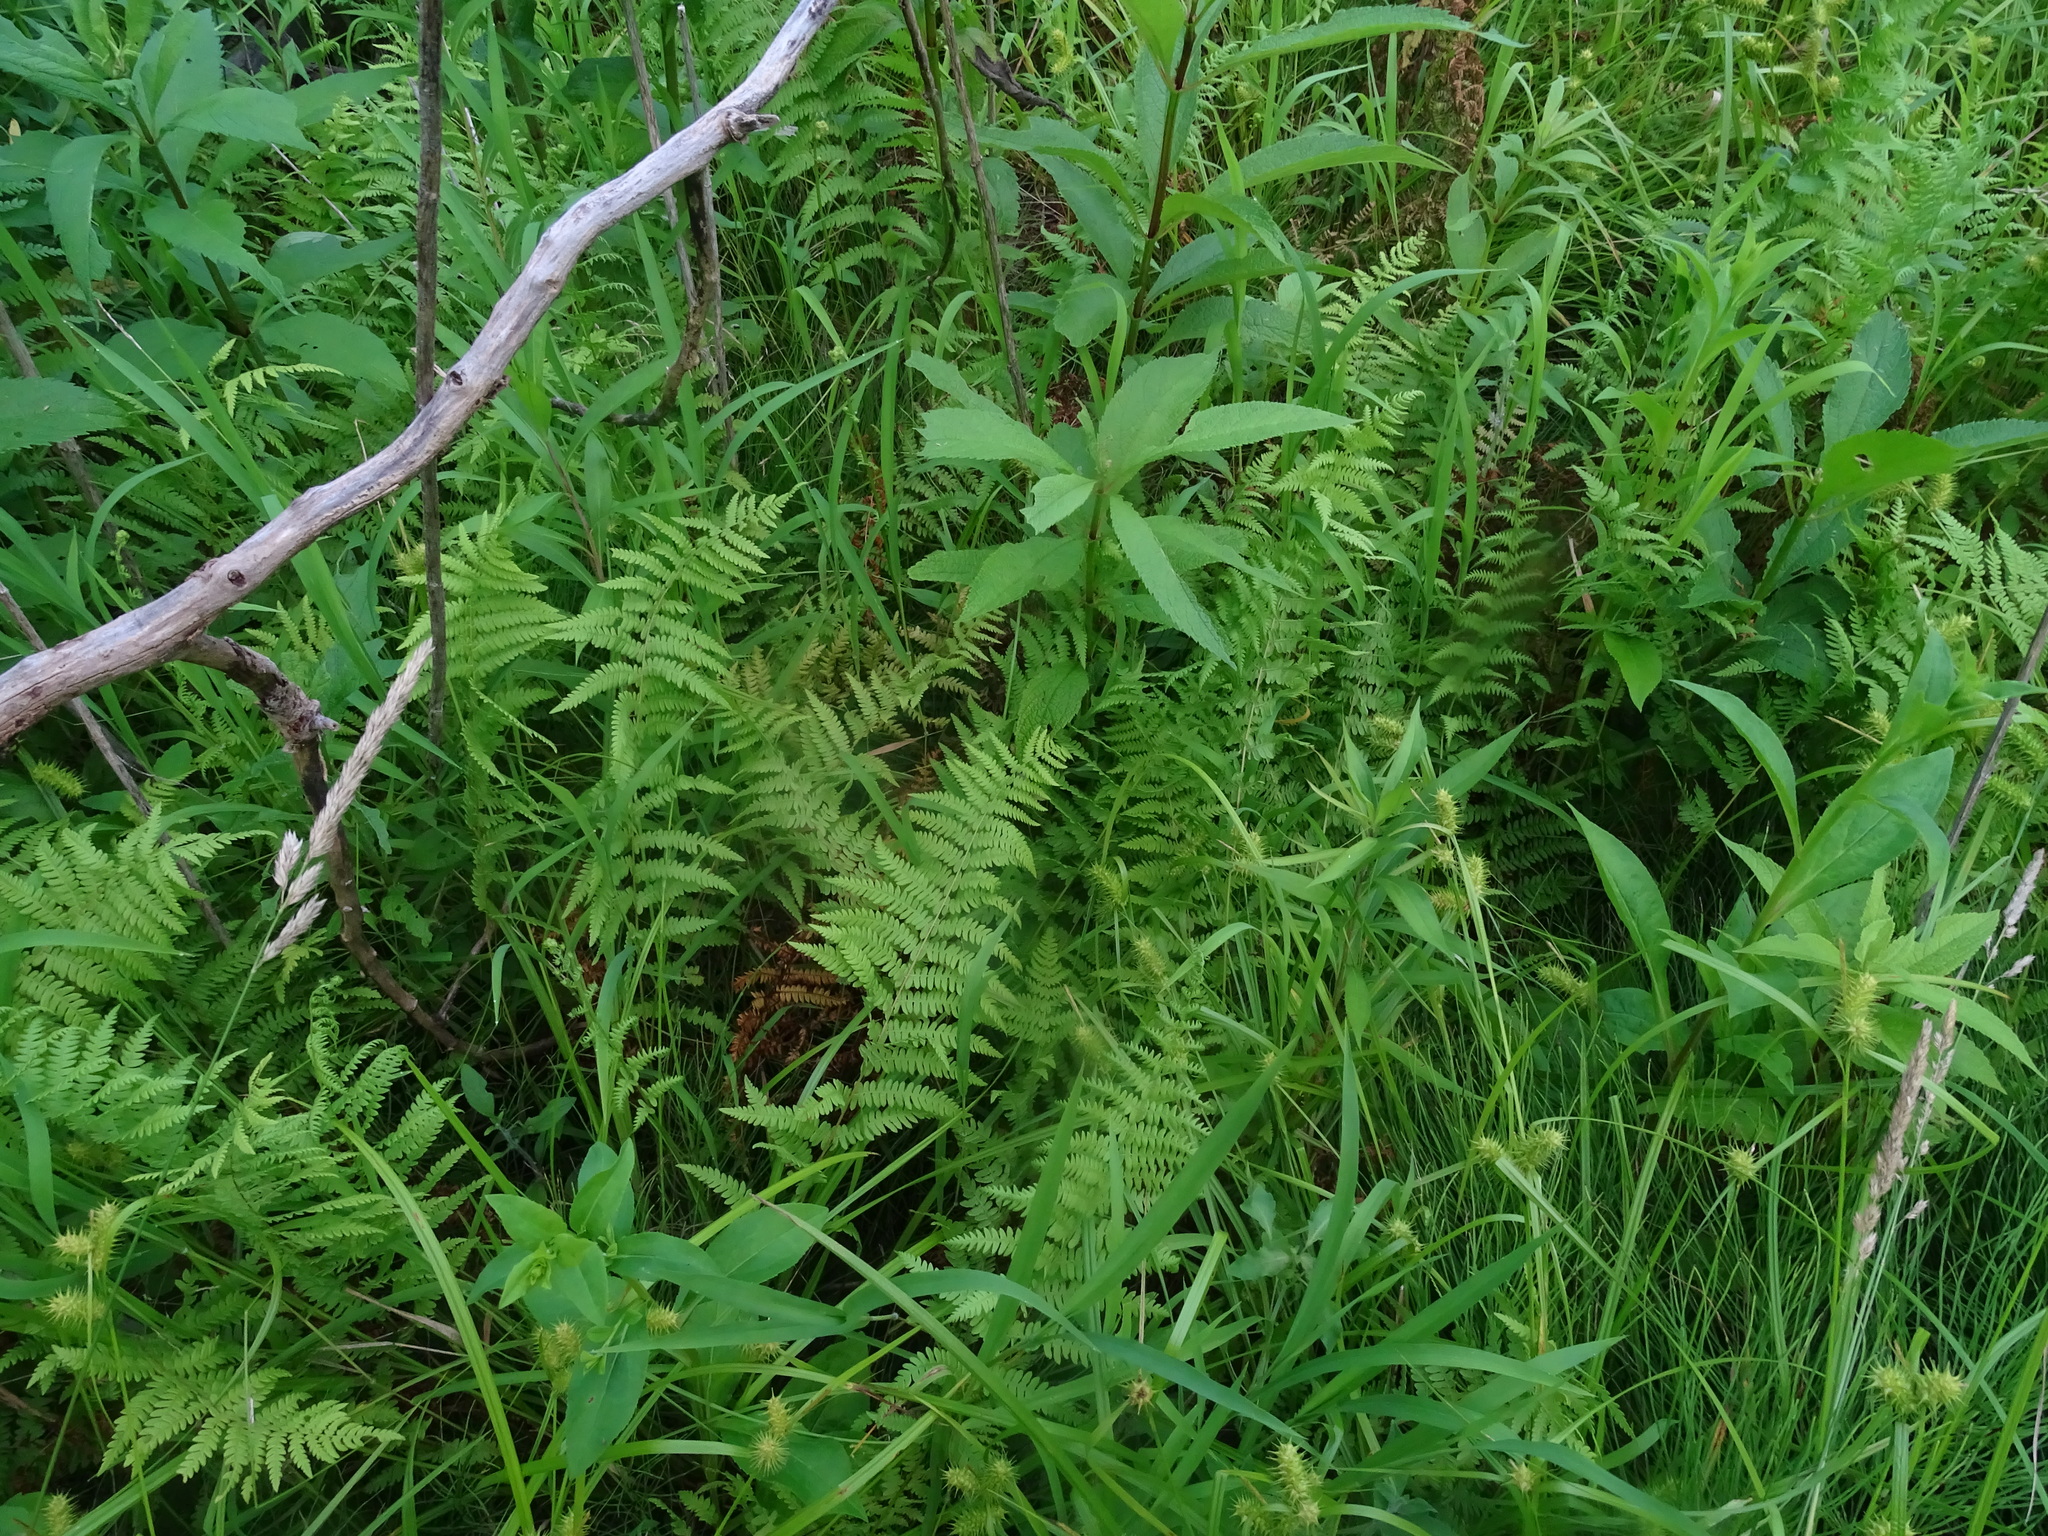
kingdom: Plantae
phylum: Tracheophyta
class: Polypodiopsida
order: Polypodiales
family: Thelypteridaceae
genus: Thelypteris
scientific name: Thelypteris palustris
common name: Marsh fern
